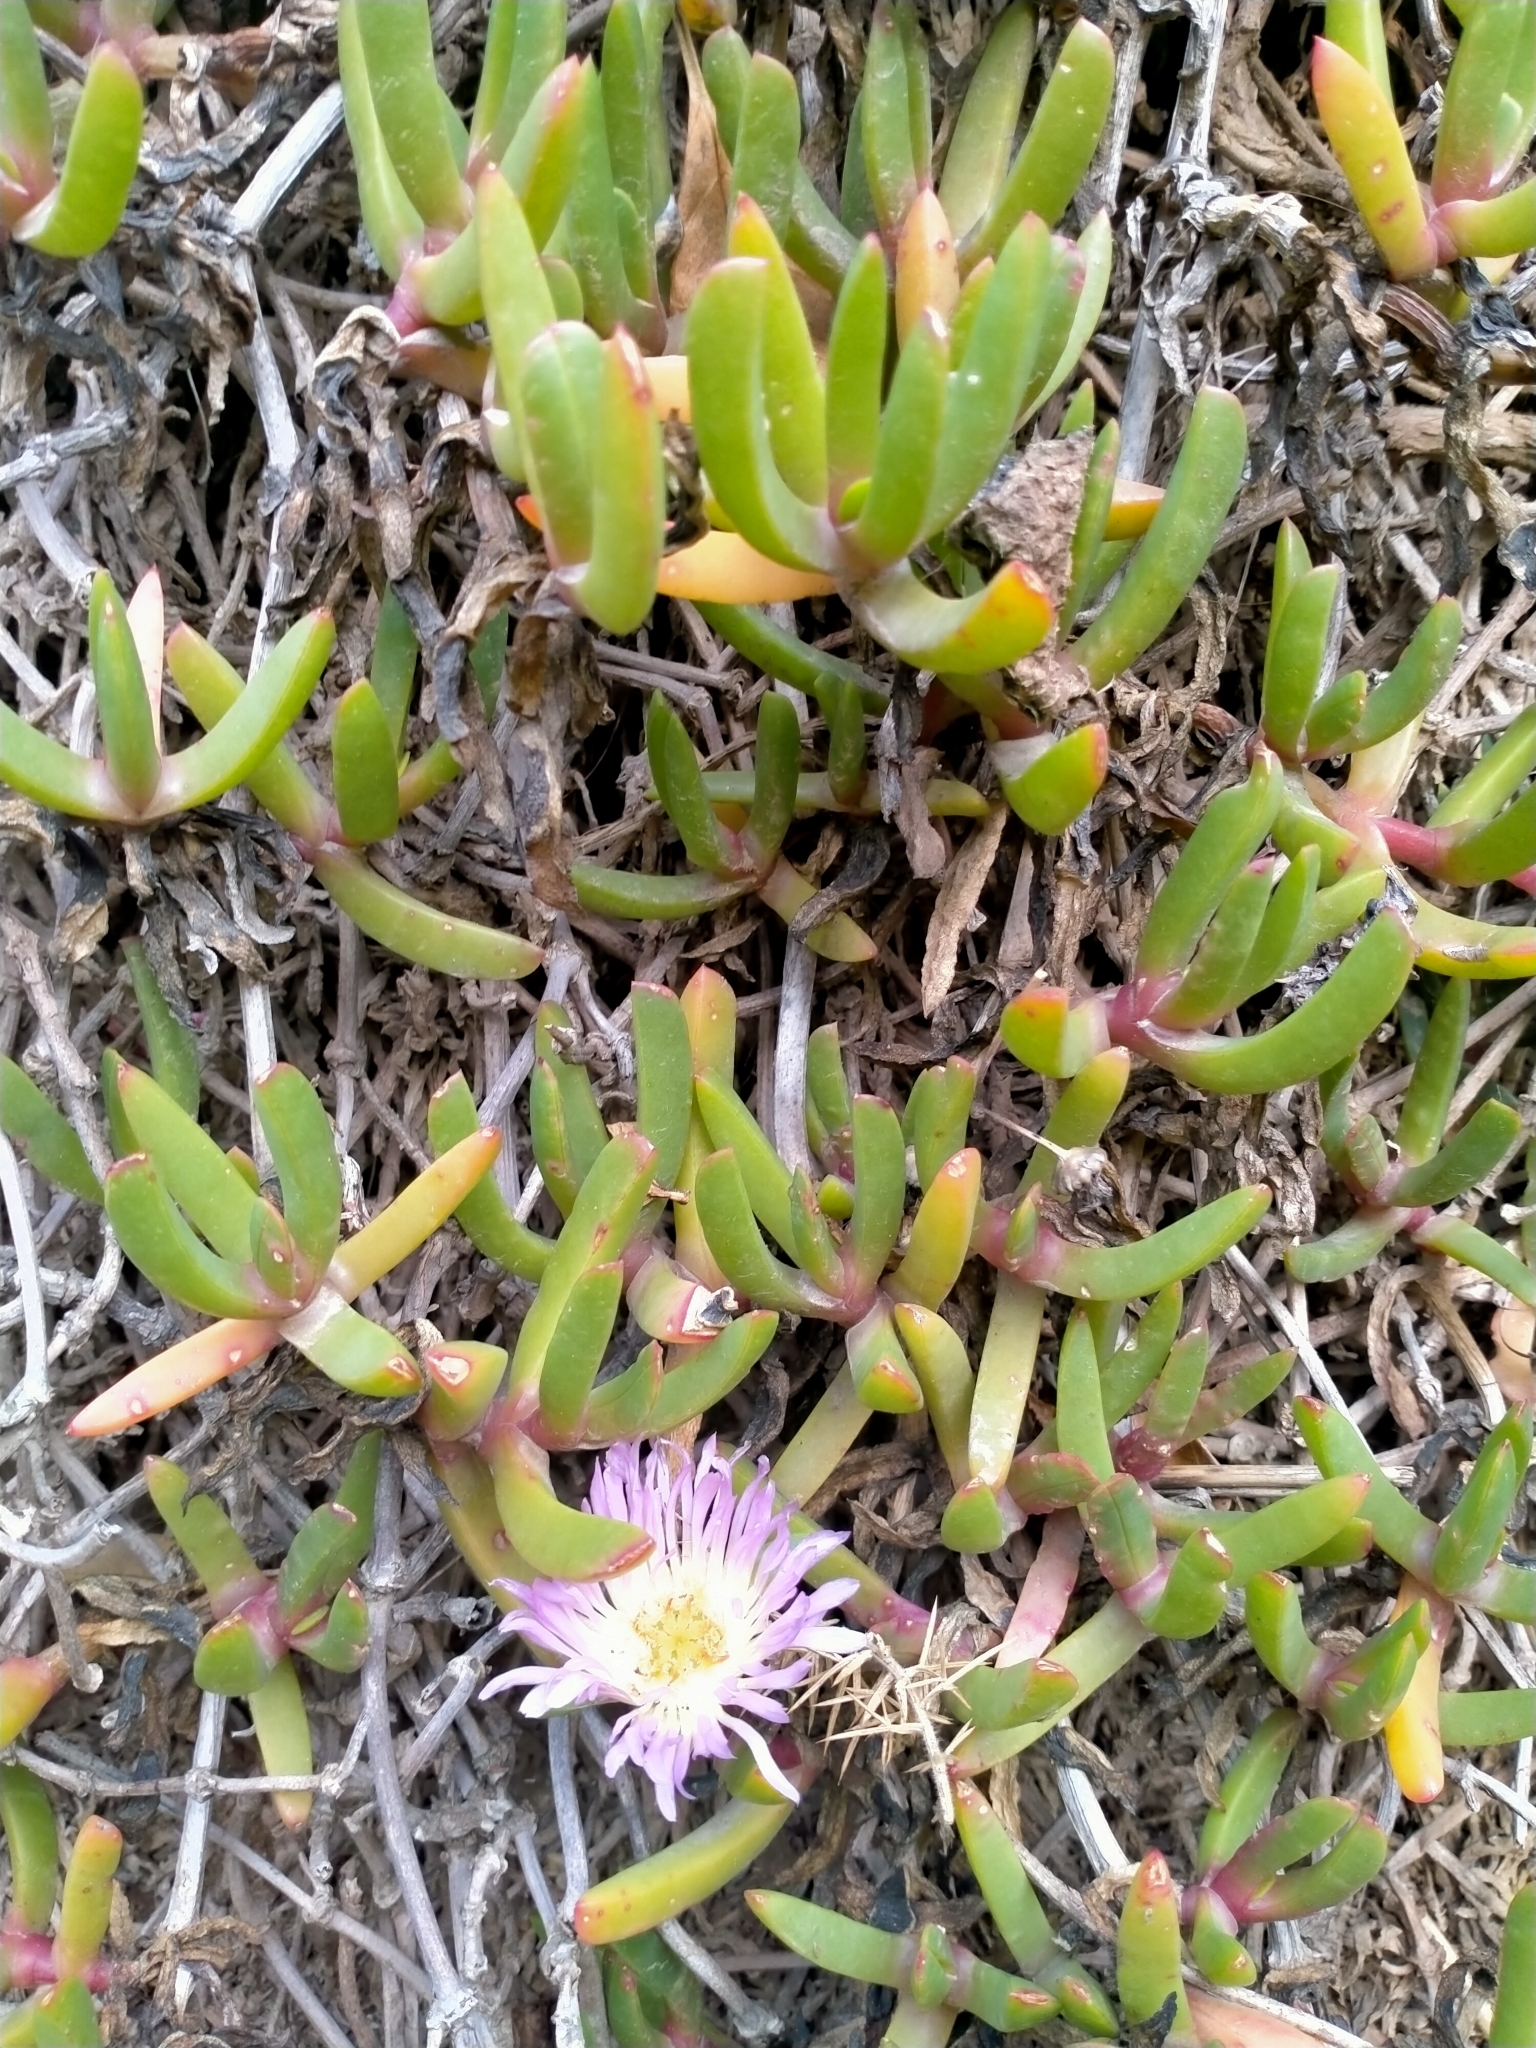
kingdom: Plantae
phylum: Tracheophyta
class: Magnoliopsida
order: Caryophyllales
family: Aizoaceae
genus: Disphyma
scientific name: Disphyma australe
